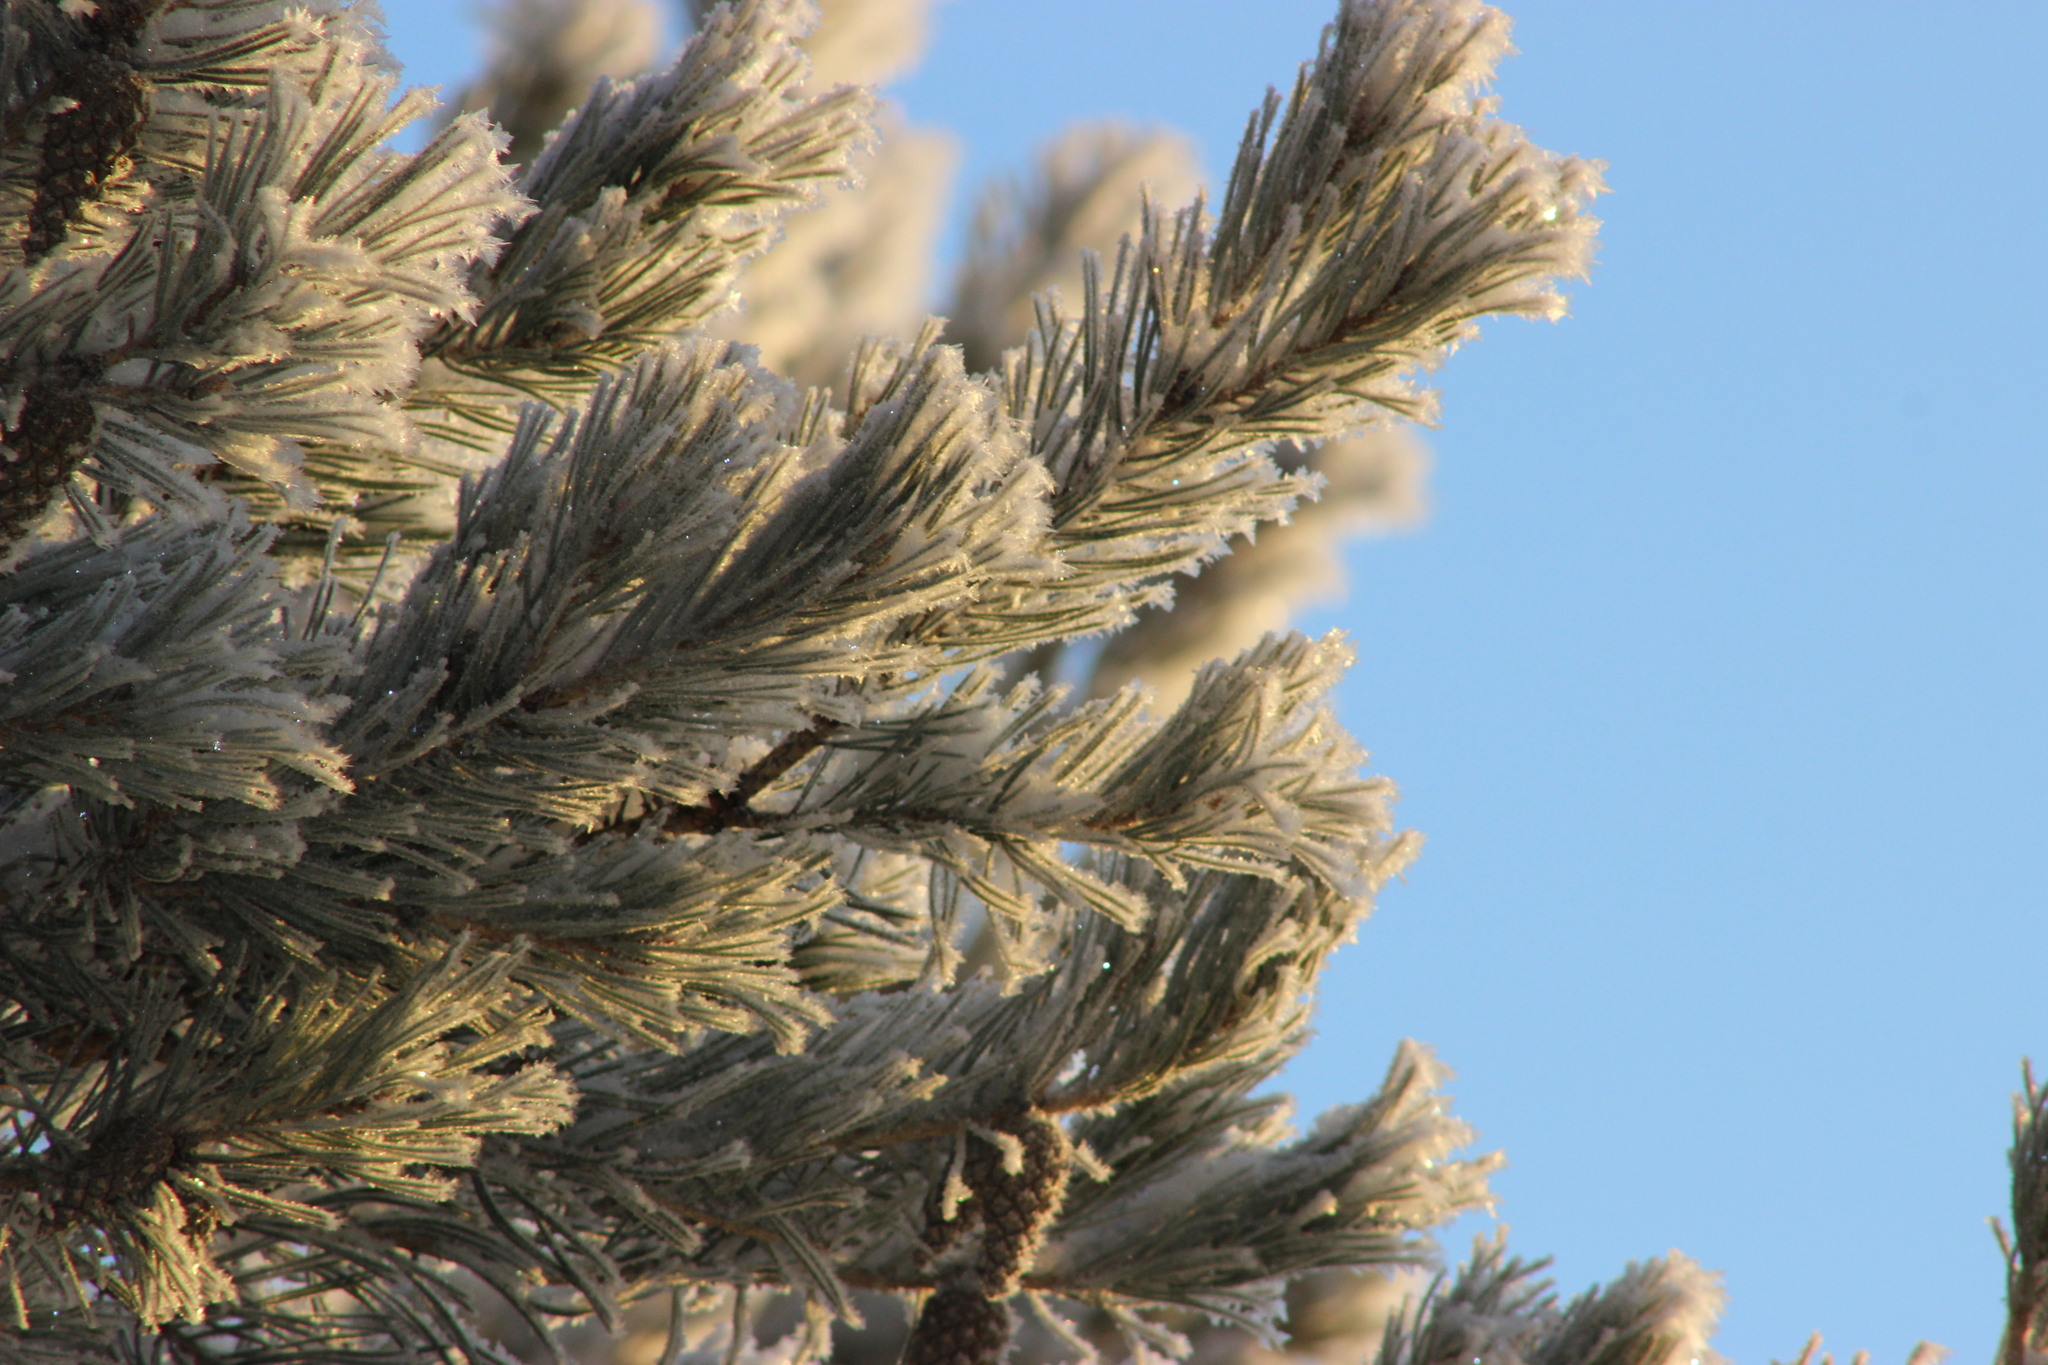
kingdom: Plantae
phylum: Tracheophyta
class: Pinopsida
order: Pinales
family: Pinaceae
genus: Pinus
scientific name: Pinus sylvestris
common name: Scots pine
